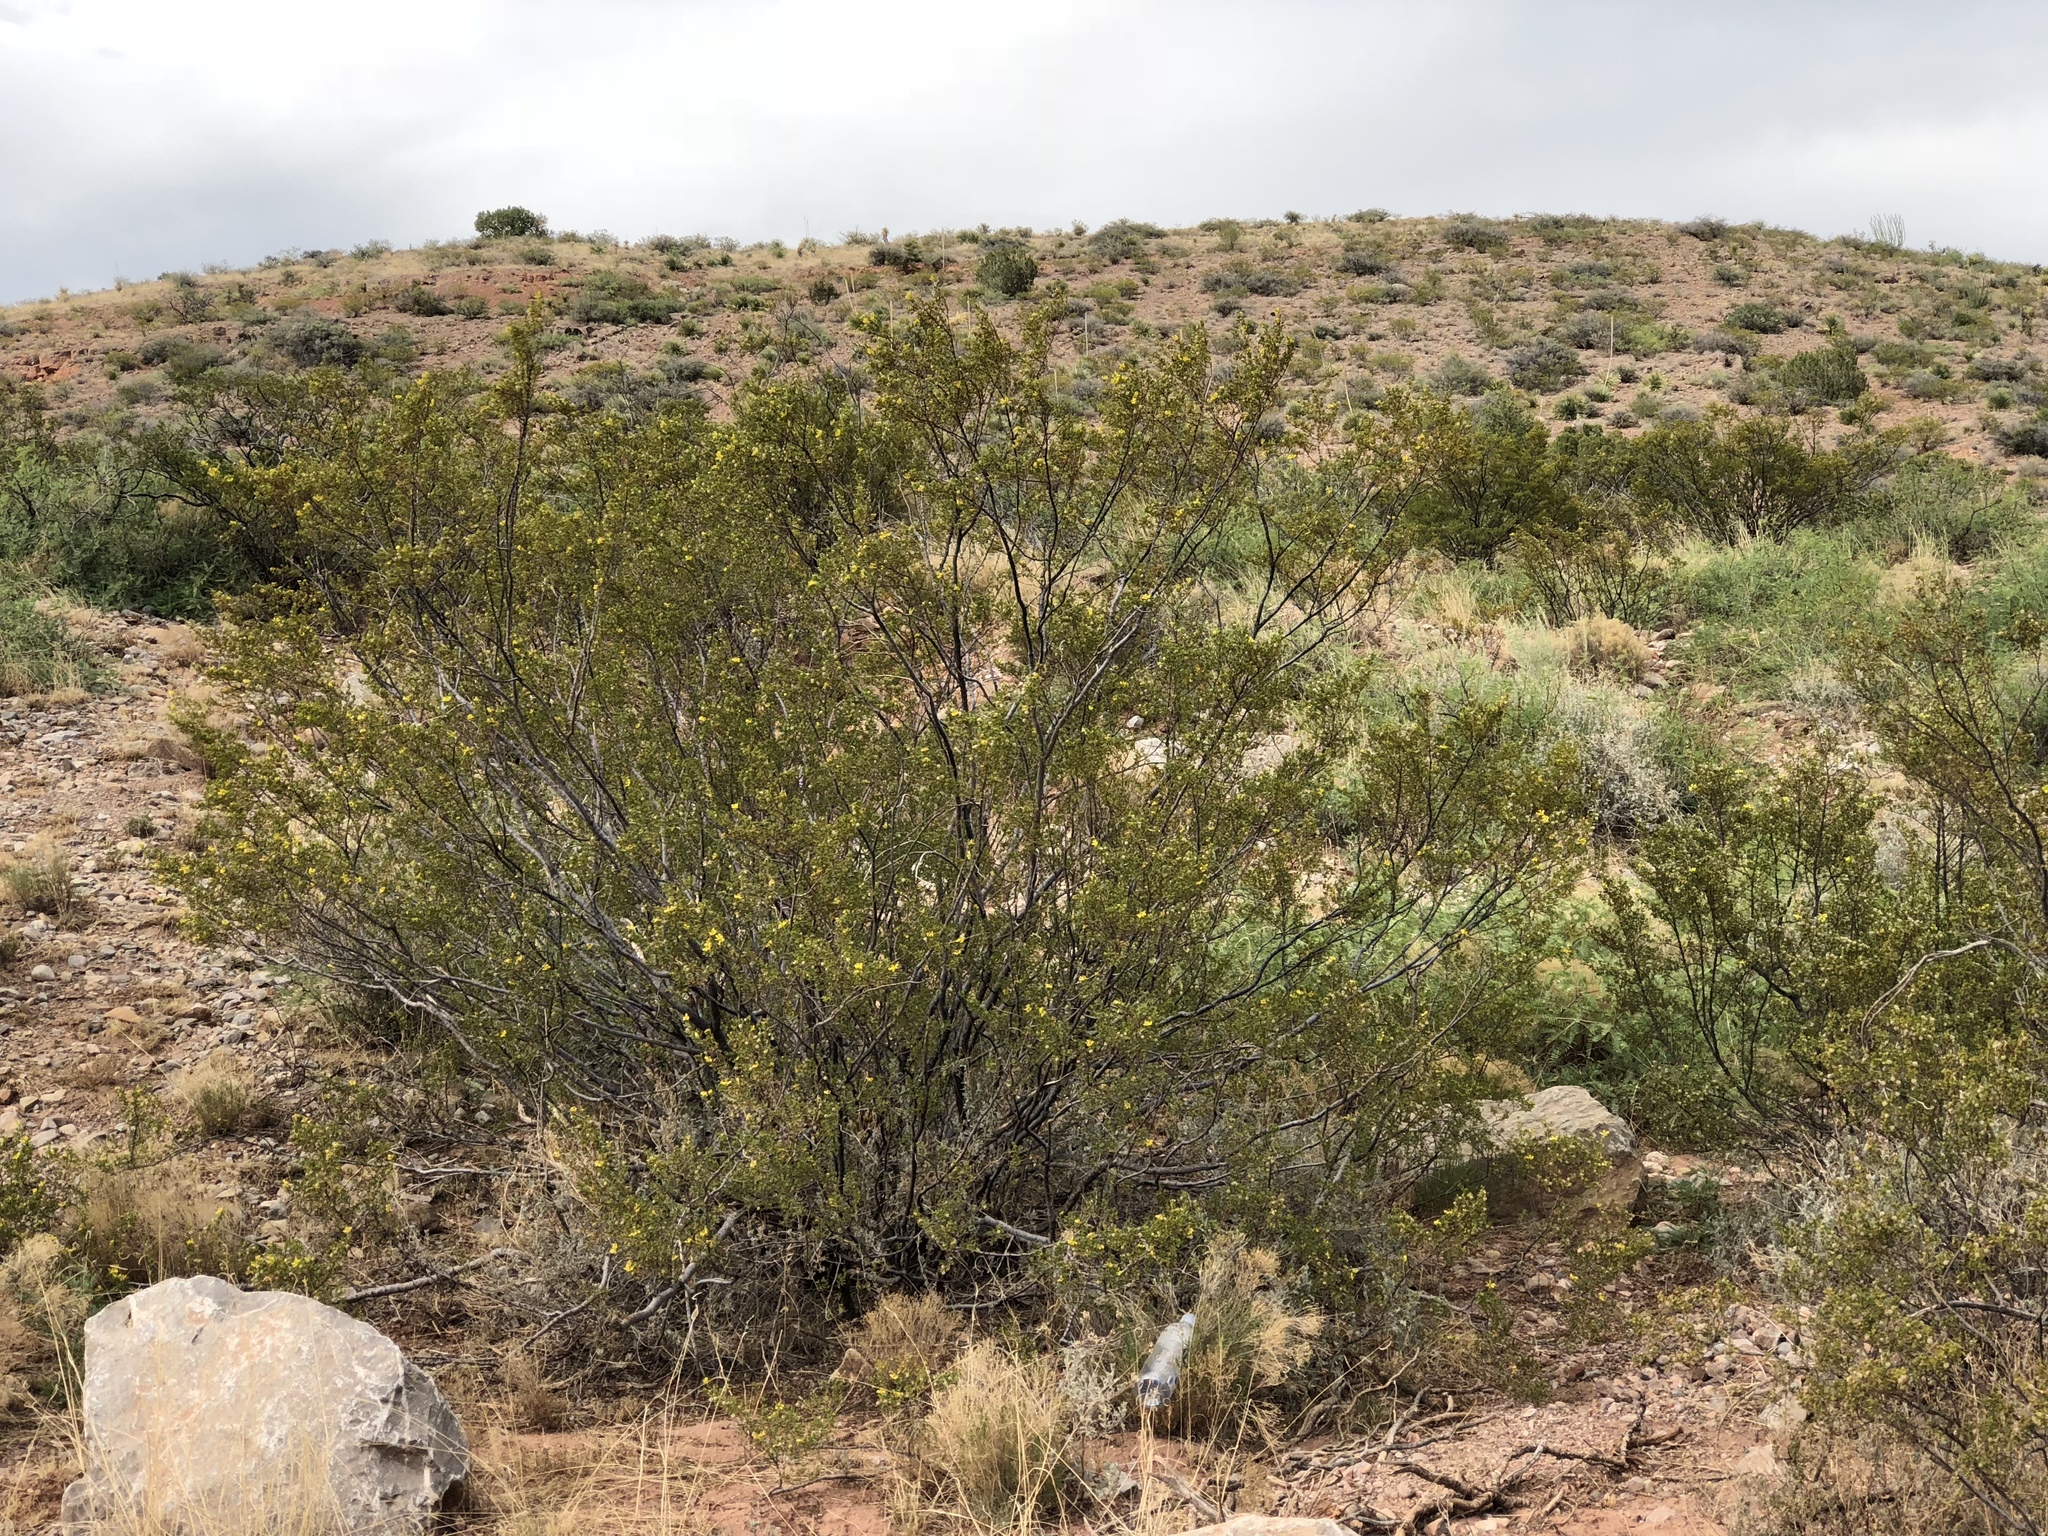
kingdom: Plantae
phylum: Tracheophyta
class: Magnoliopsida
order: Zygophyllales
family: Zygophyllaceae
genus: Larrea
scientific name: Larrea tridentata
